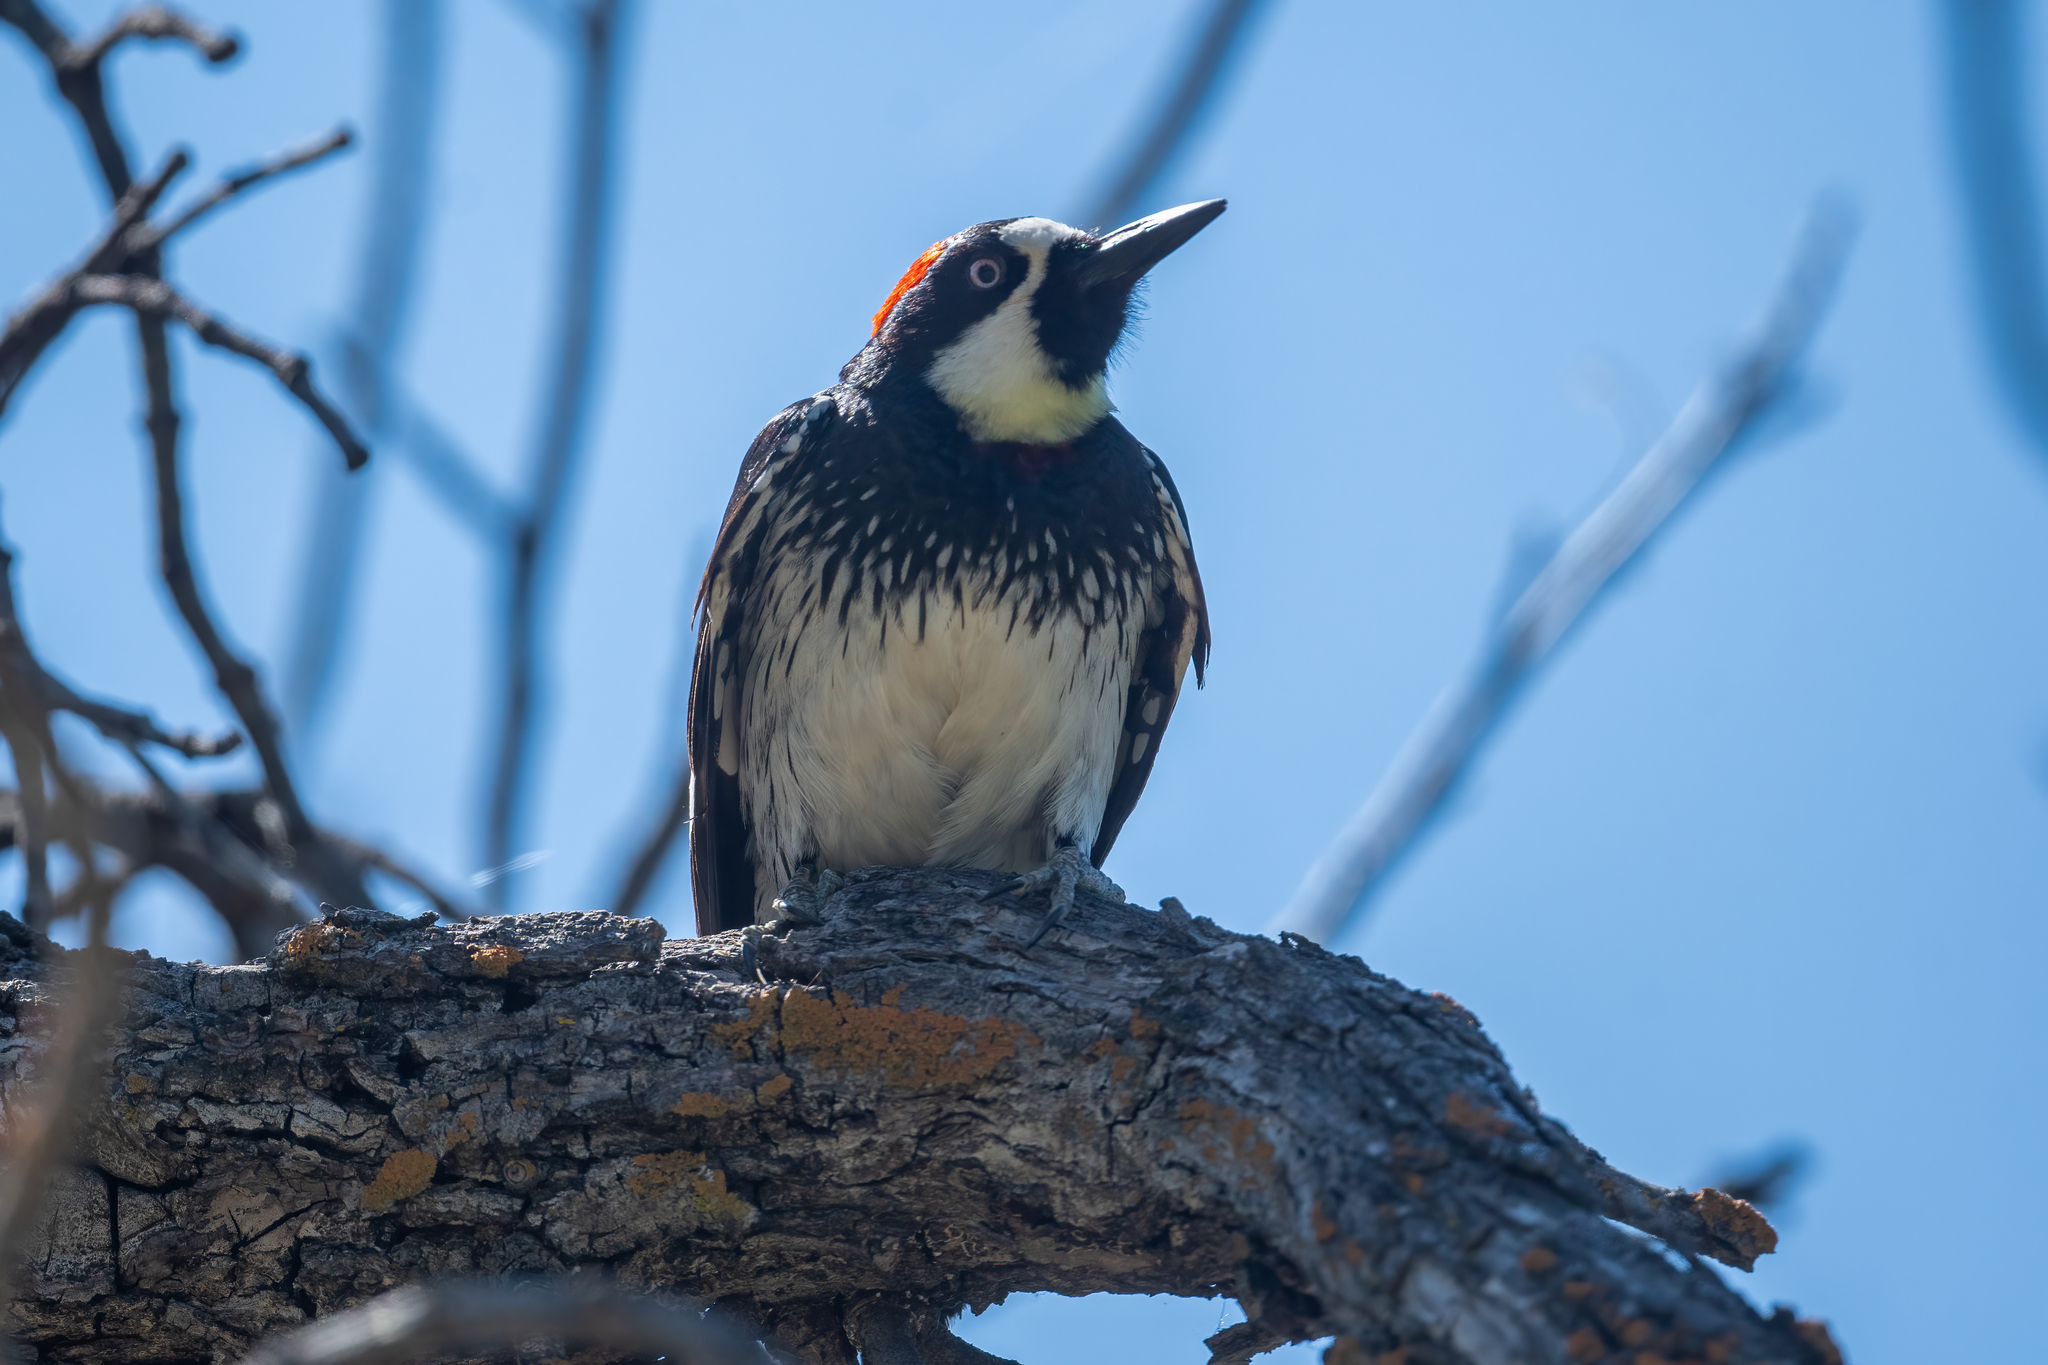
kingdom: Animalia
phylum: Chordata
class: Aves
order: Piciformes
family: Picidae
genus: Melanerpes
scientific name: Melanerpes formicivorus
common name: Acorn woodpecker
